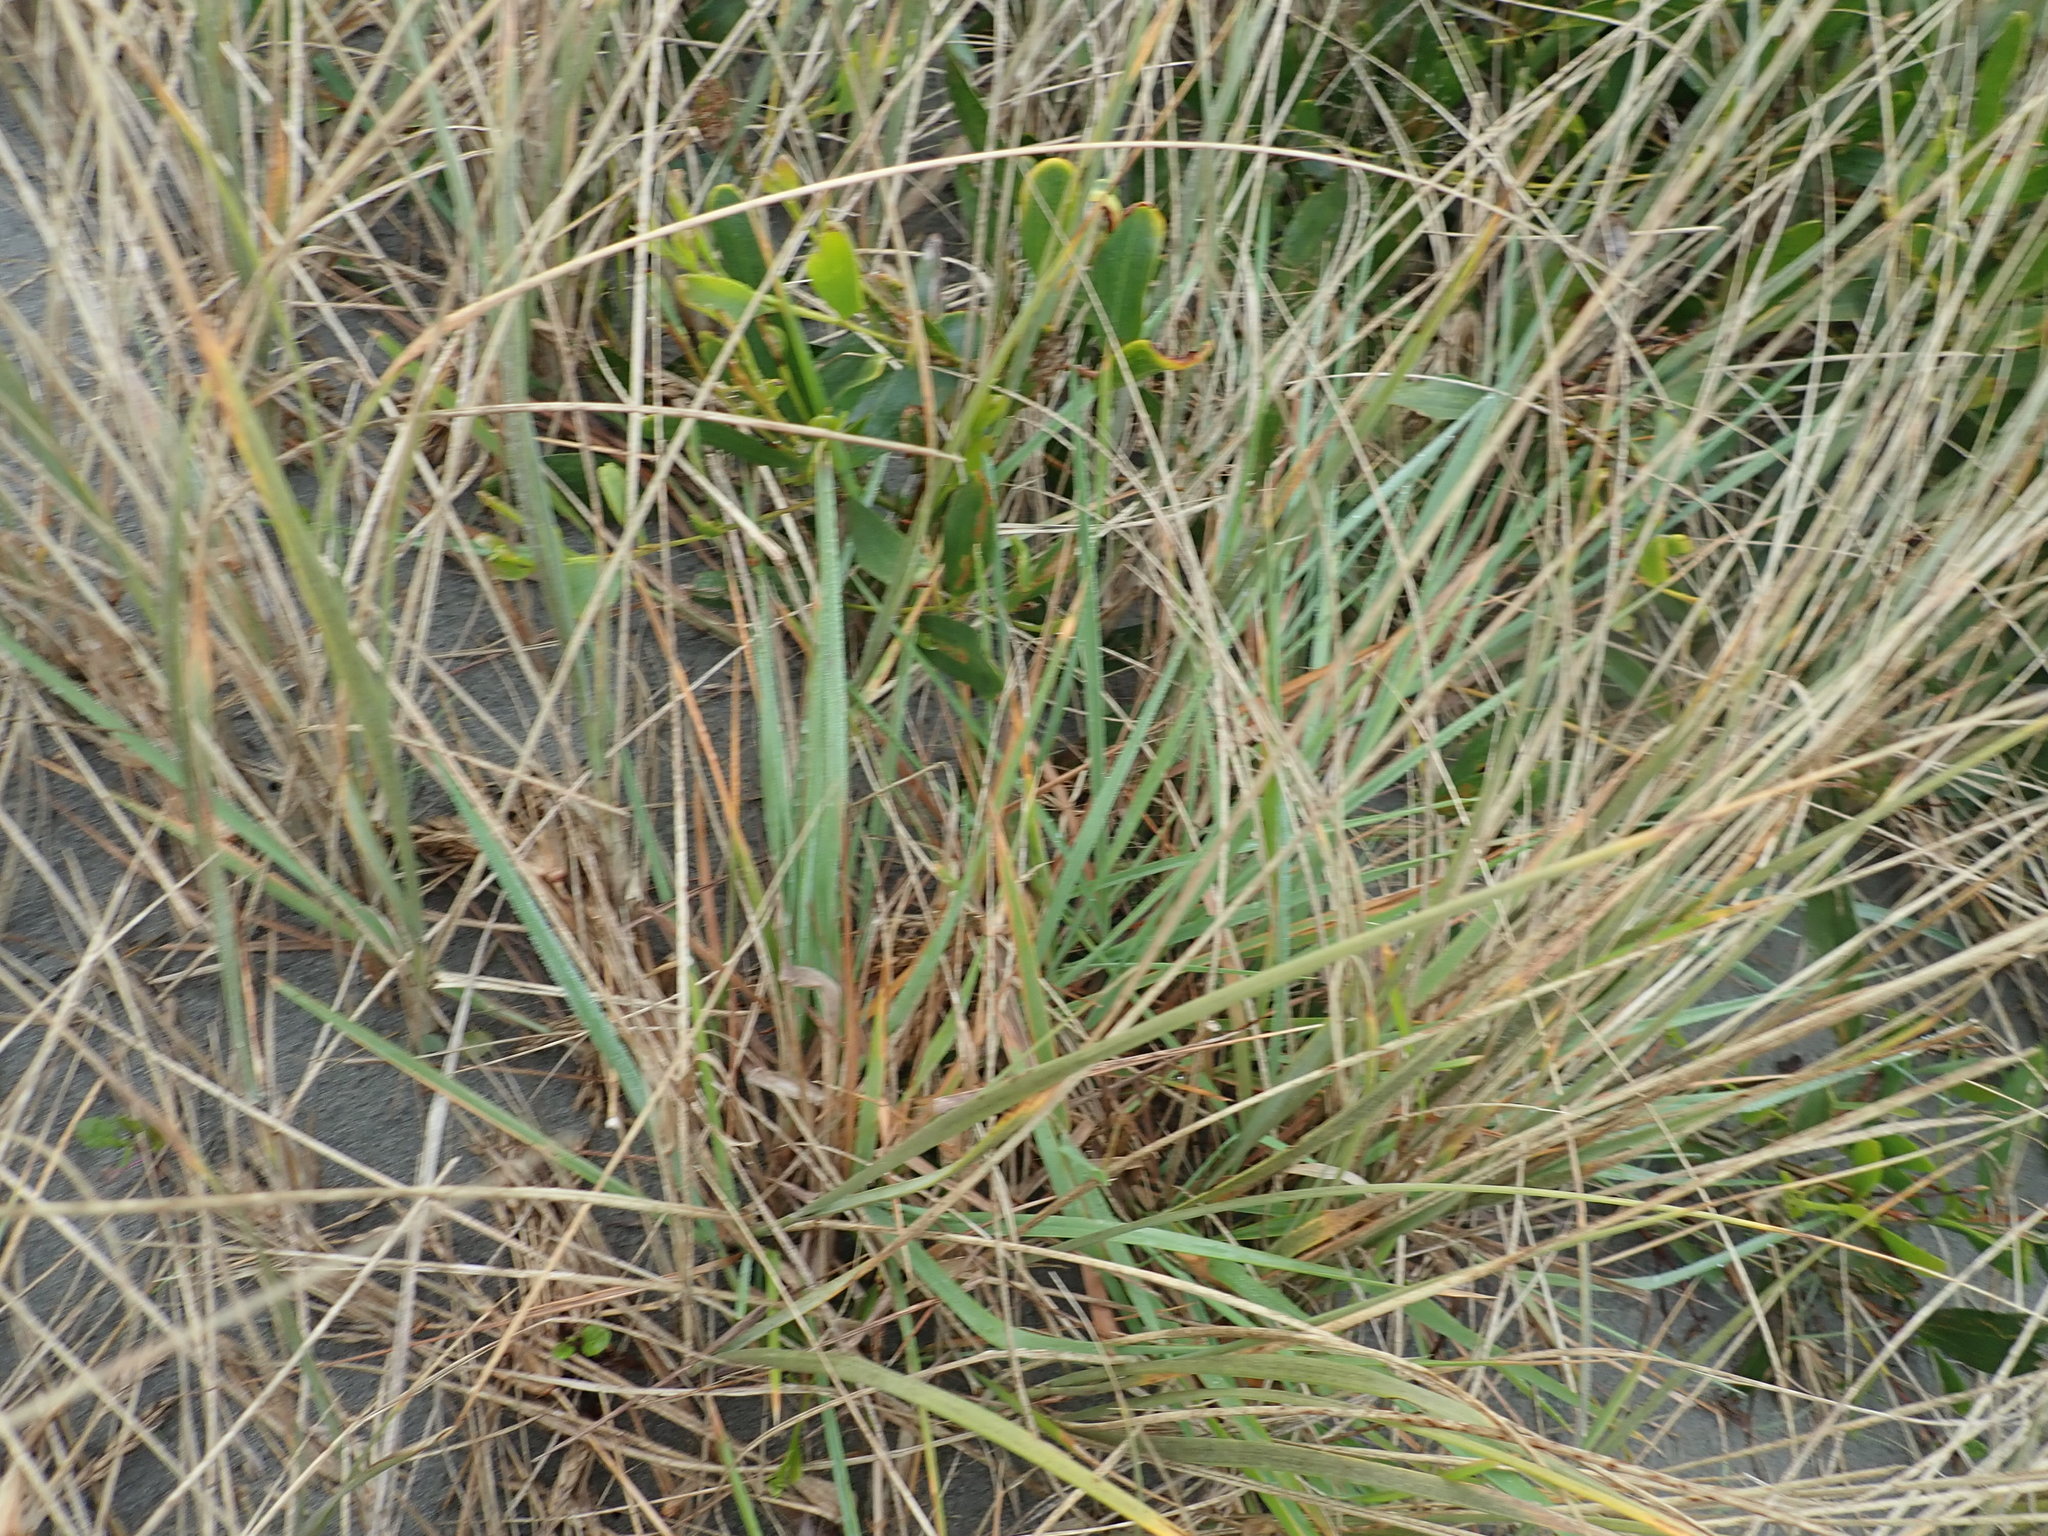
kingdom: Plantae
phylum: Tracheophyta
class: Liliopsida
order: Poales
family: Poaceae
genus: Lachnagrostis
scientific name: Lachnagrostis billardierei
